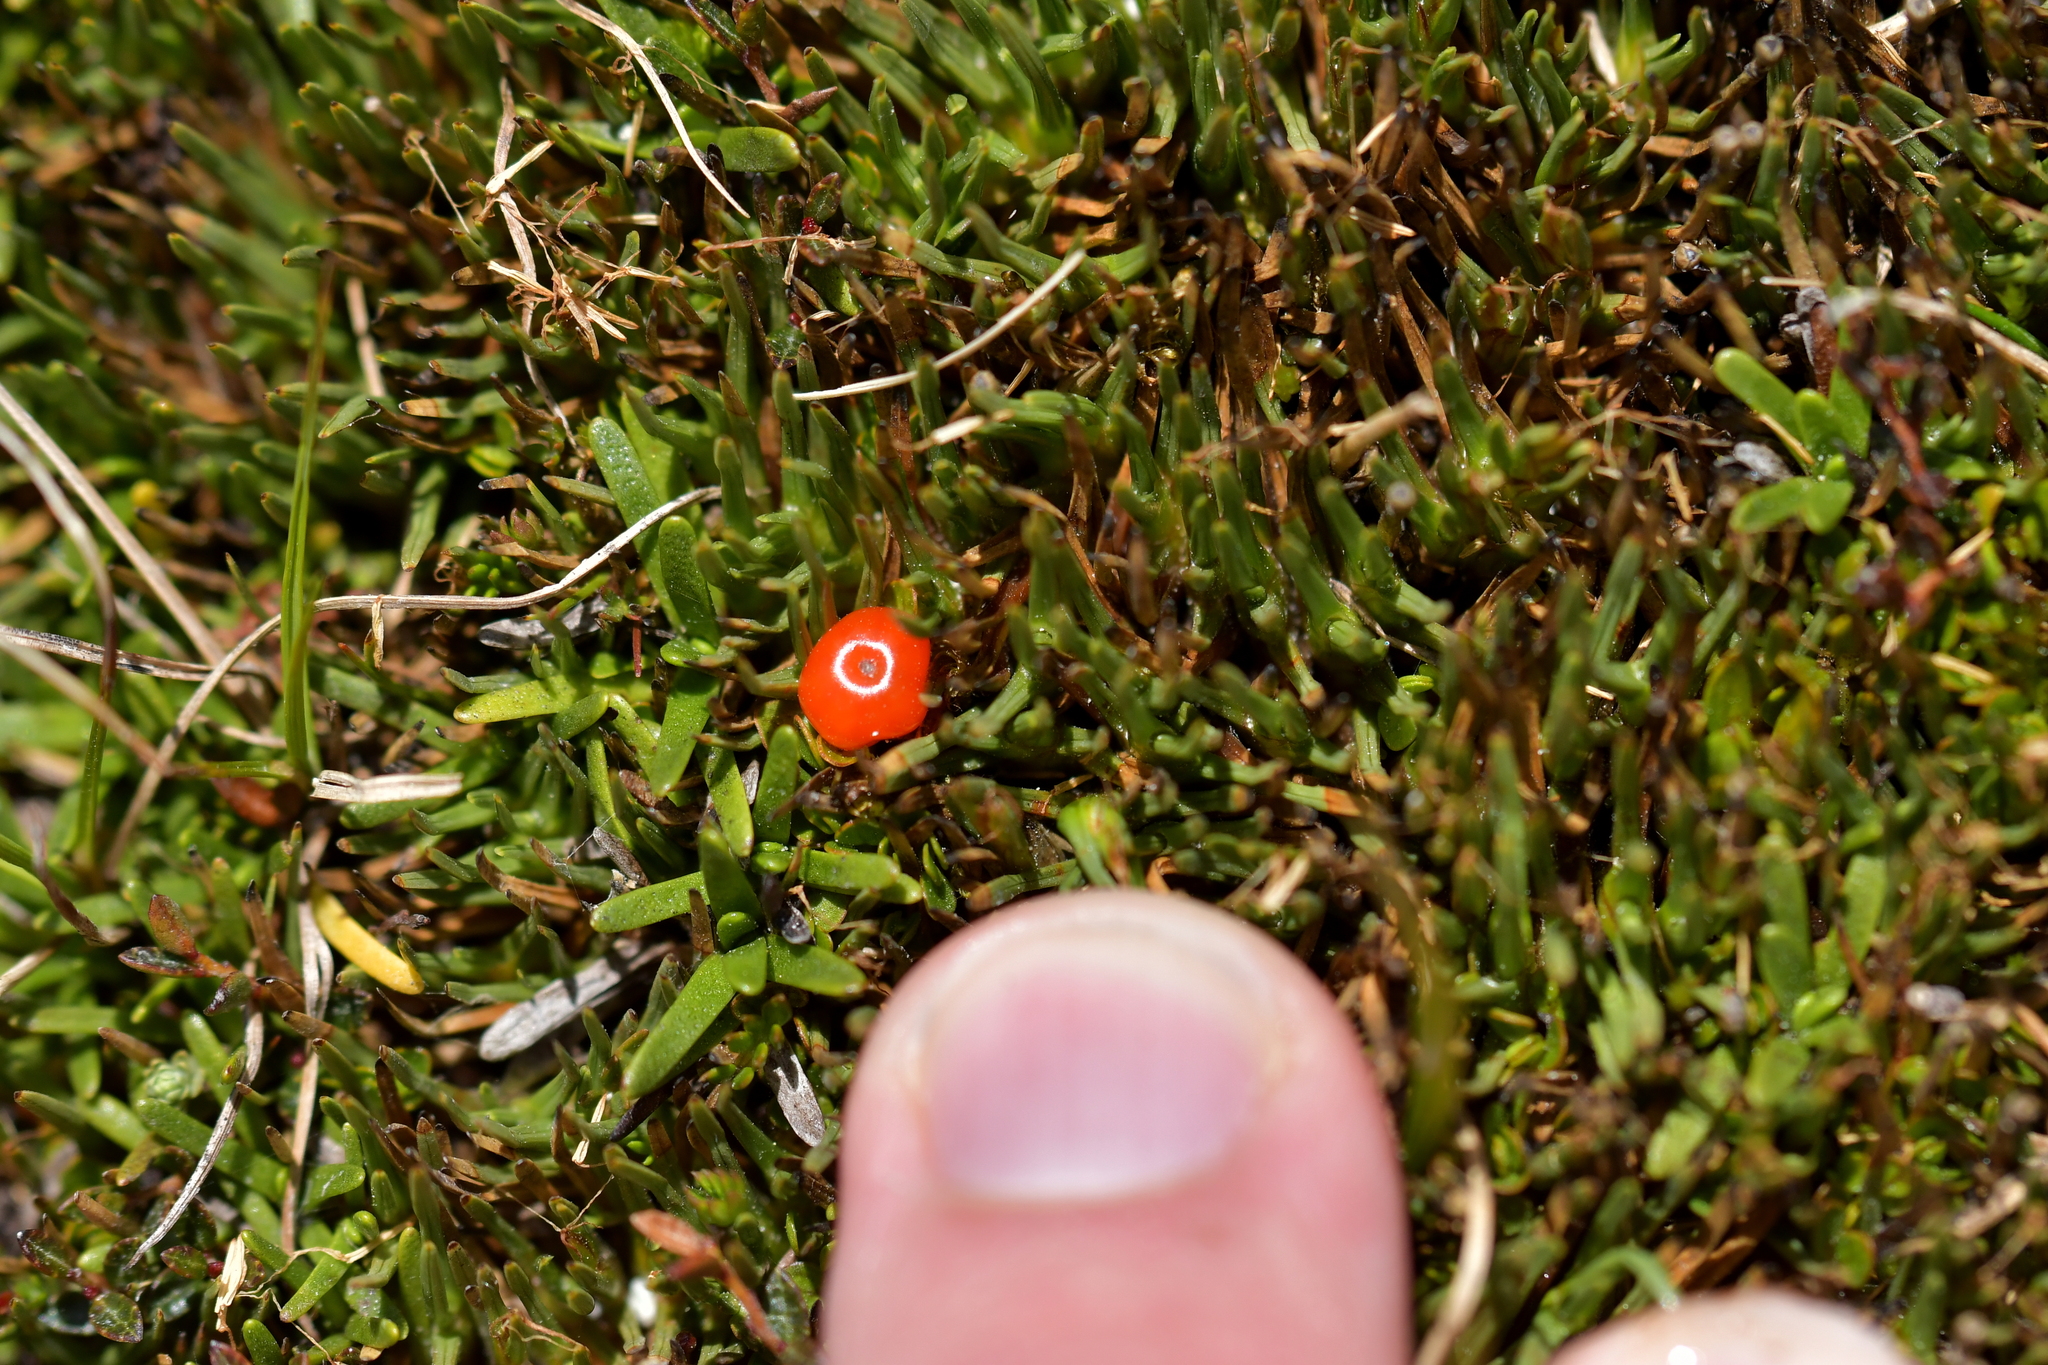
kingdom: Plantae
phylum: Tracheophyta
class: Magnoliopsida
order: Gentianales
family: Rubiaceae
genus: Coprosma
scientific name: Coprosma perpusilla
